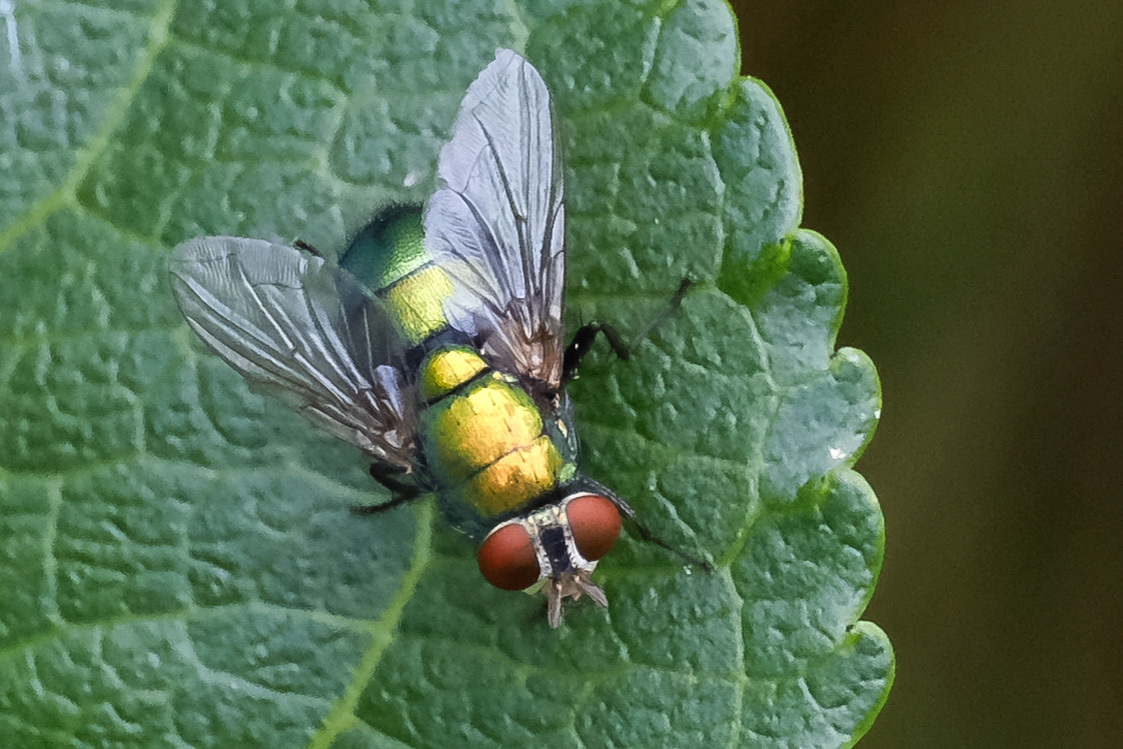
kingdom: Animalia
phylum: Arthropoda
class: Insecta
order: Diptera
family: Calliphoridae
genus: Lucilia
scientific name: Lucilia
